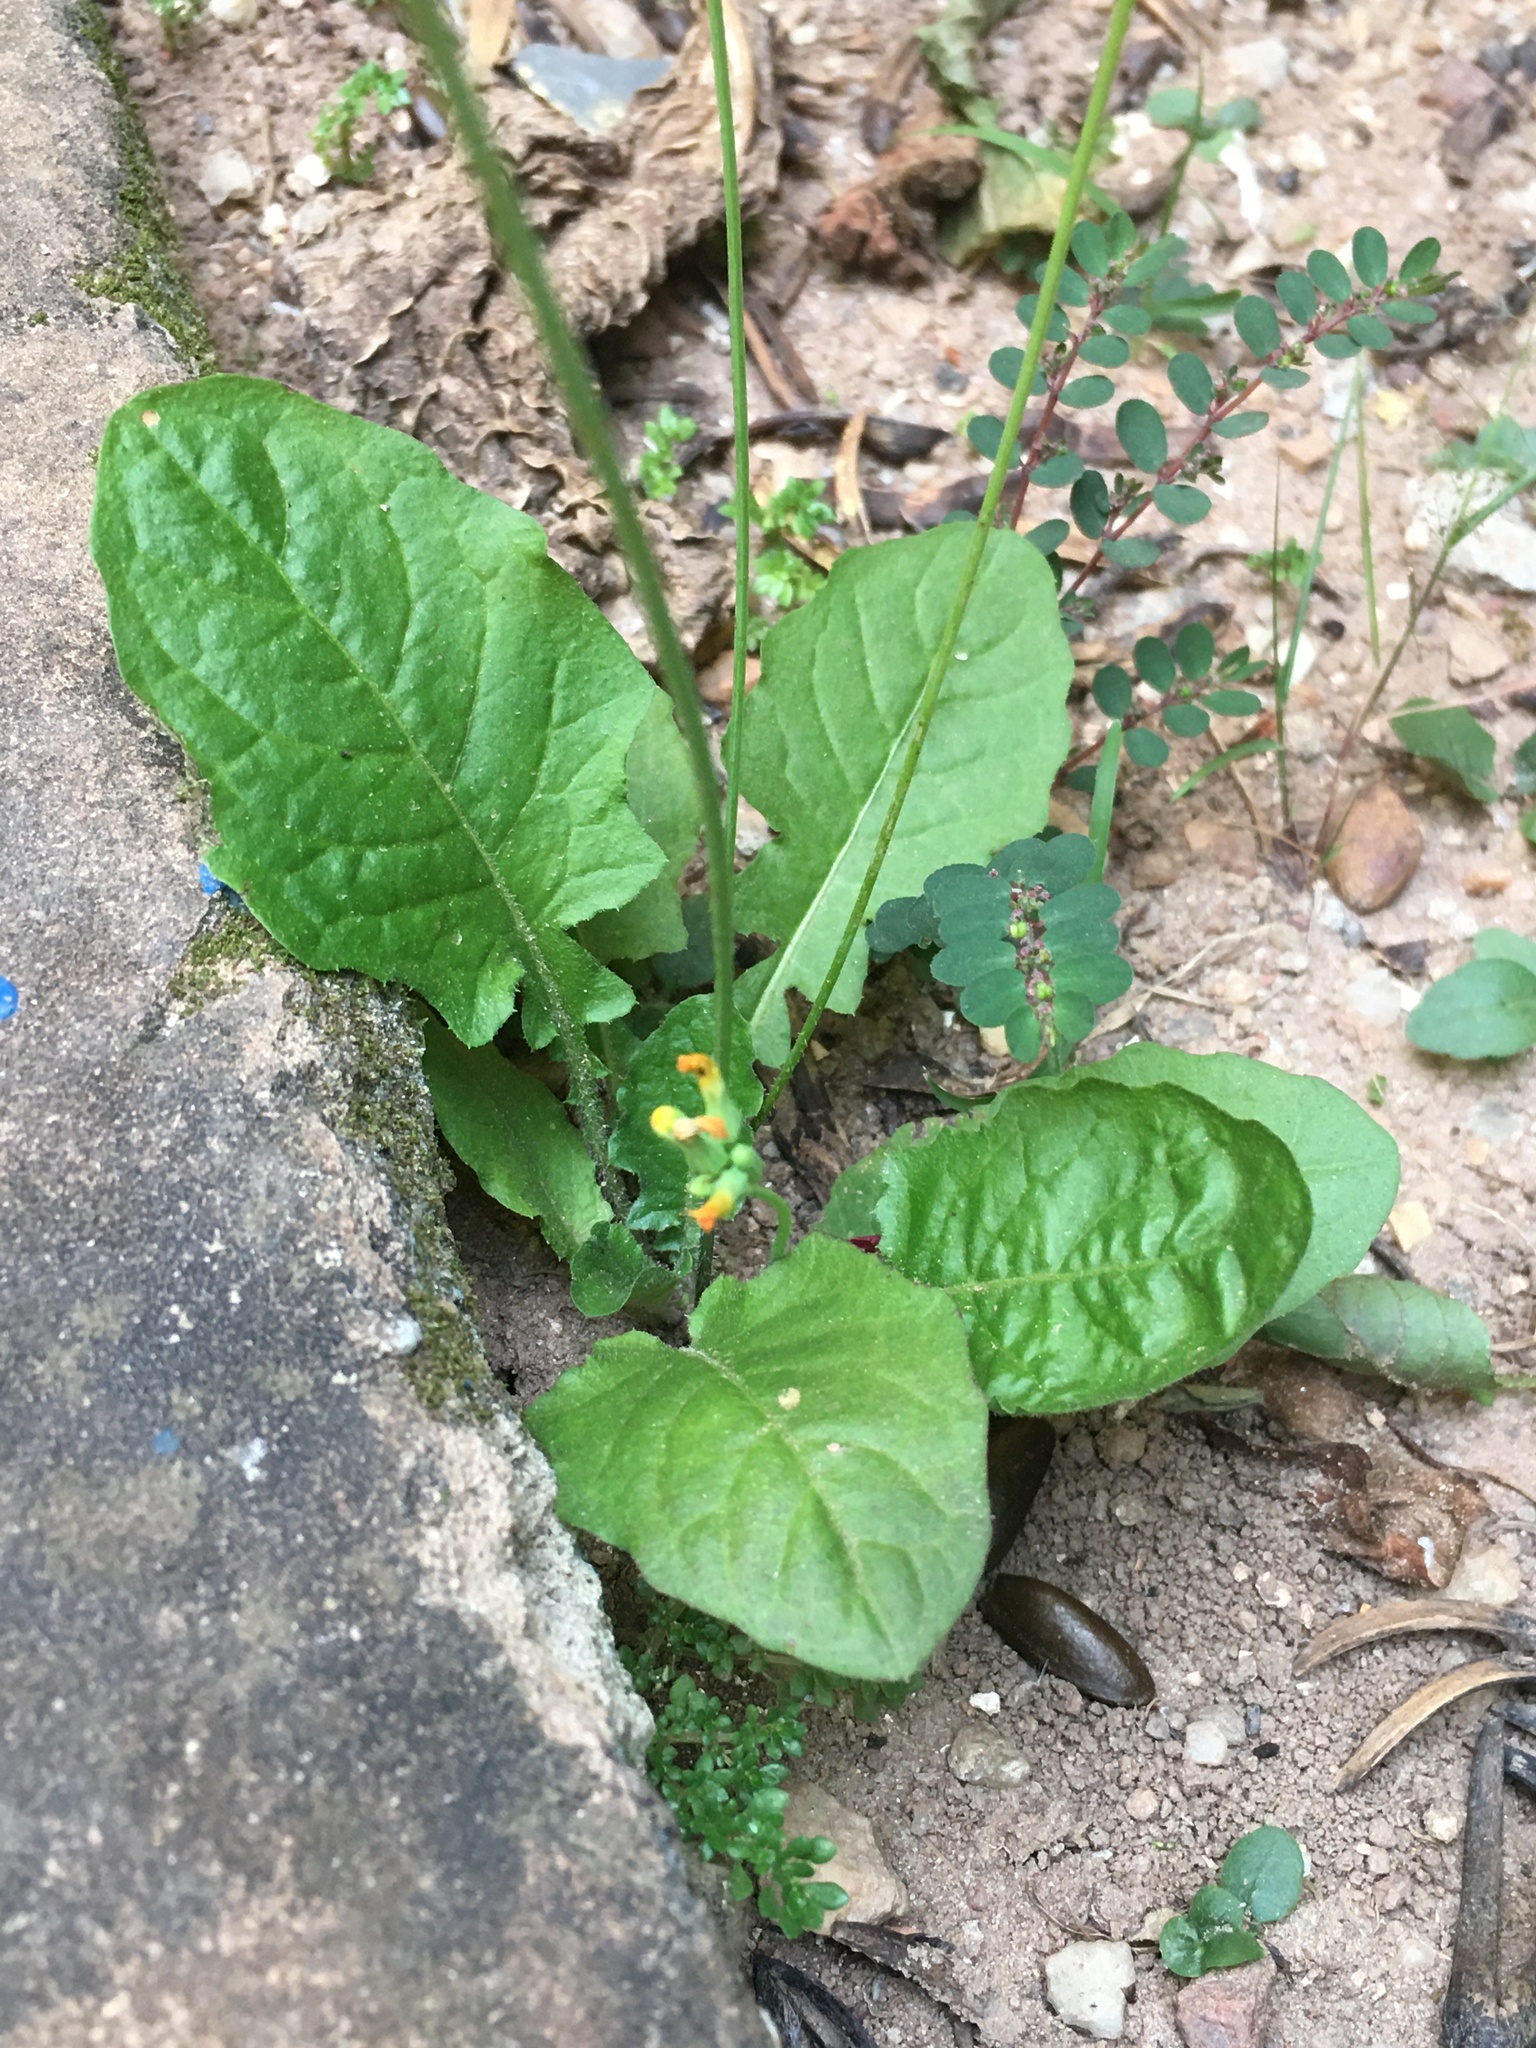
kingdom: Plantae
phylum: Tracheophyta
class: Magnoliopsida
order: Asterales
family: Asteraceae
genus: Youngia
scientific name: Youngia japonica
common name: Oriental false hawksbeard
